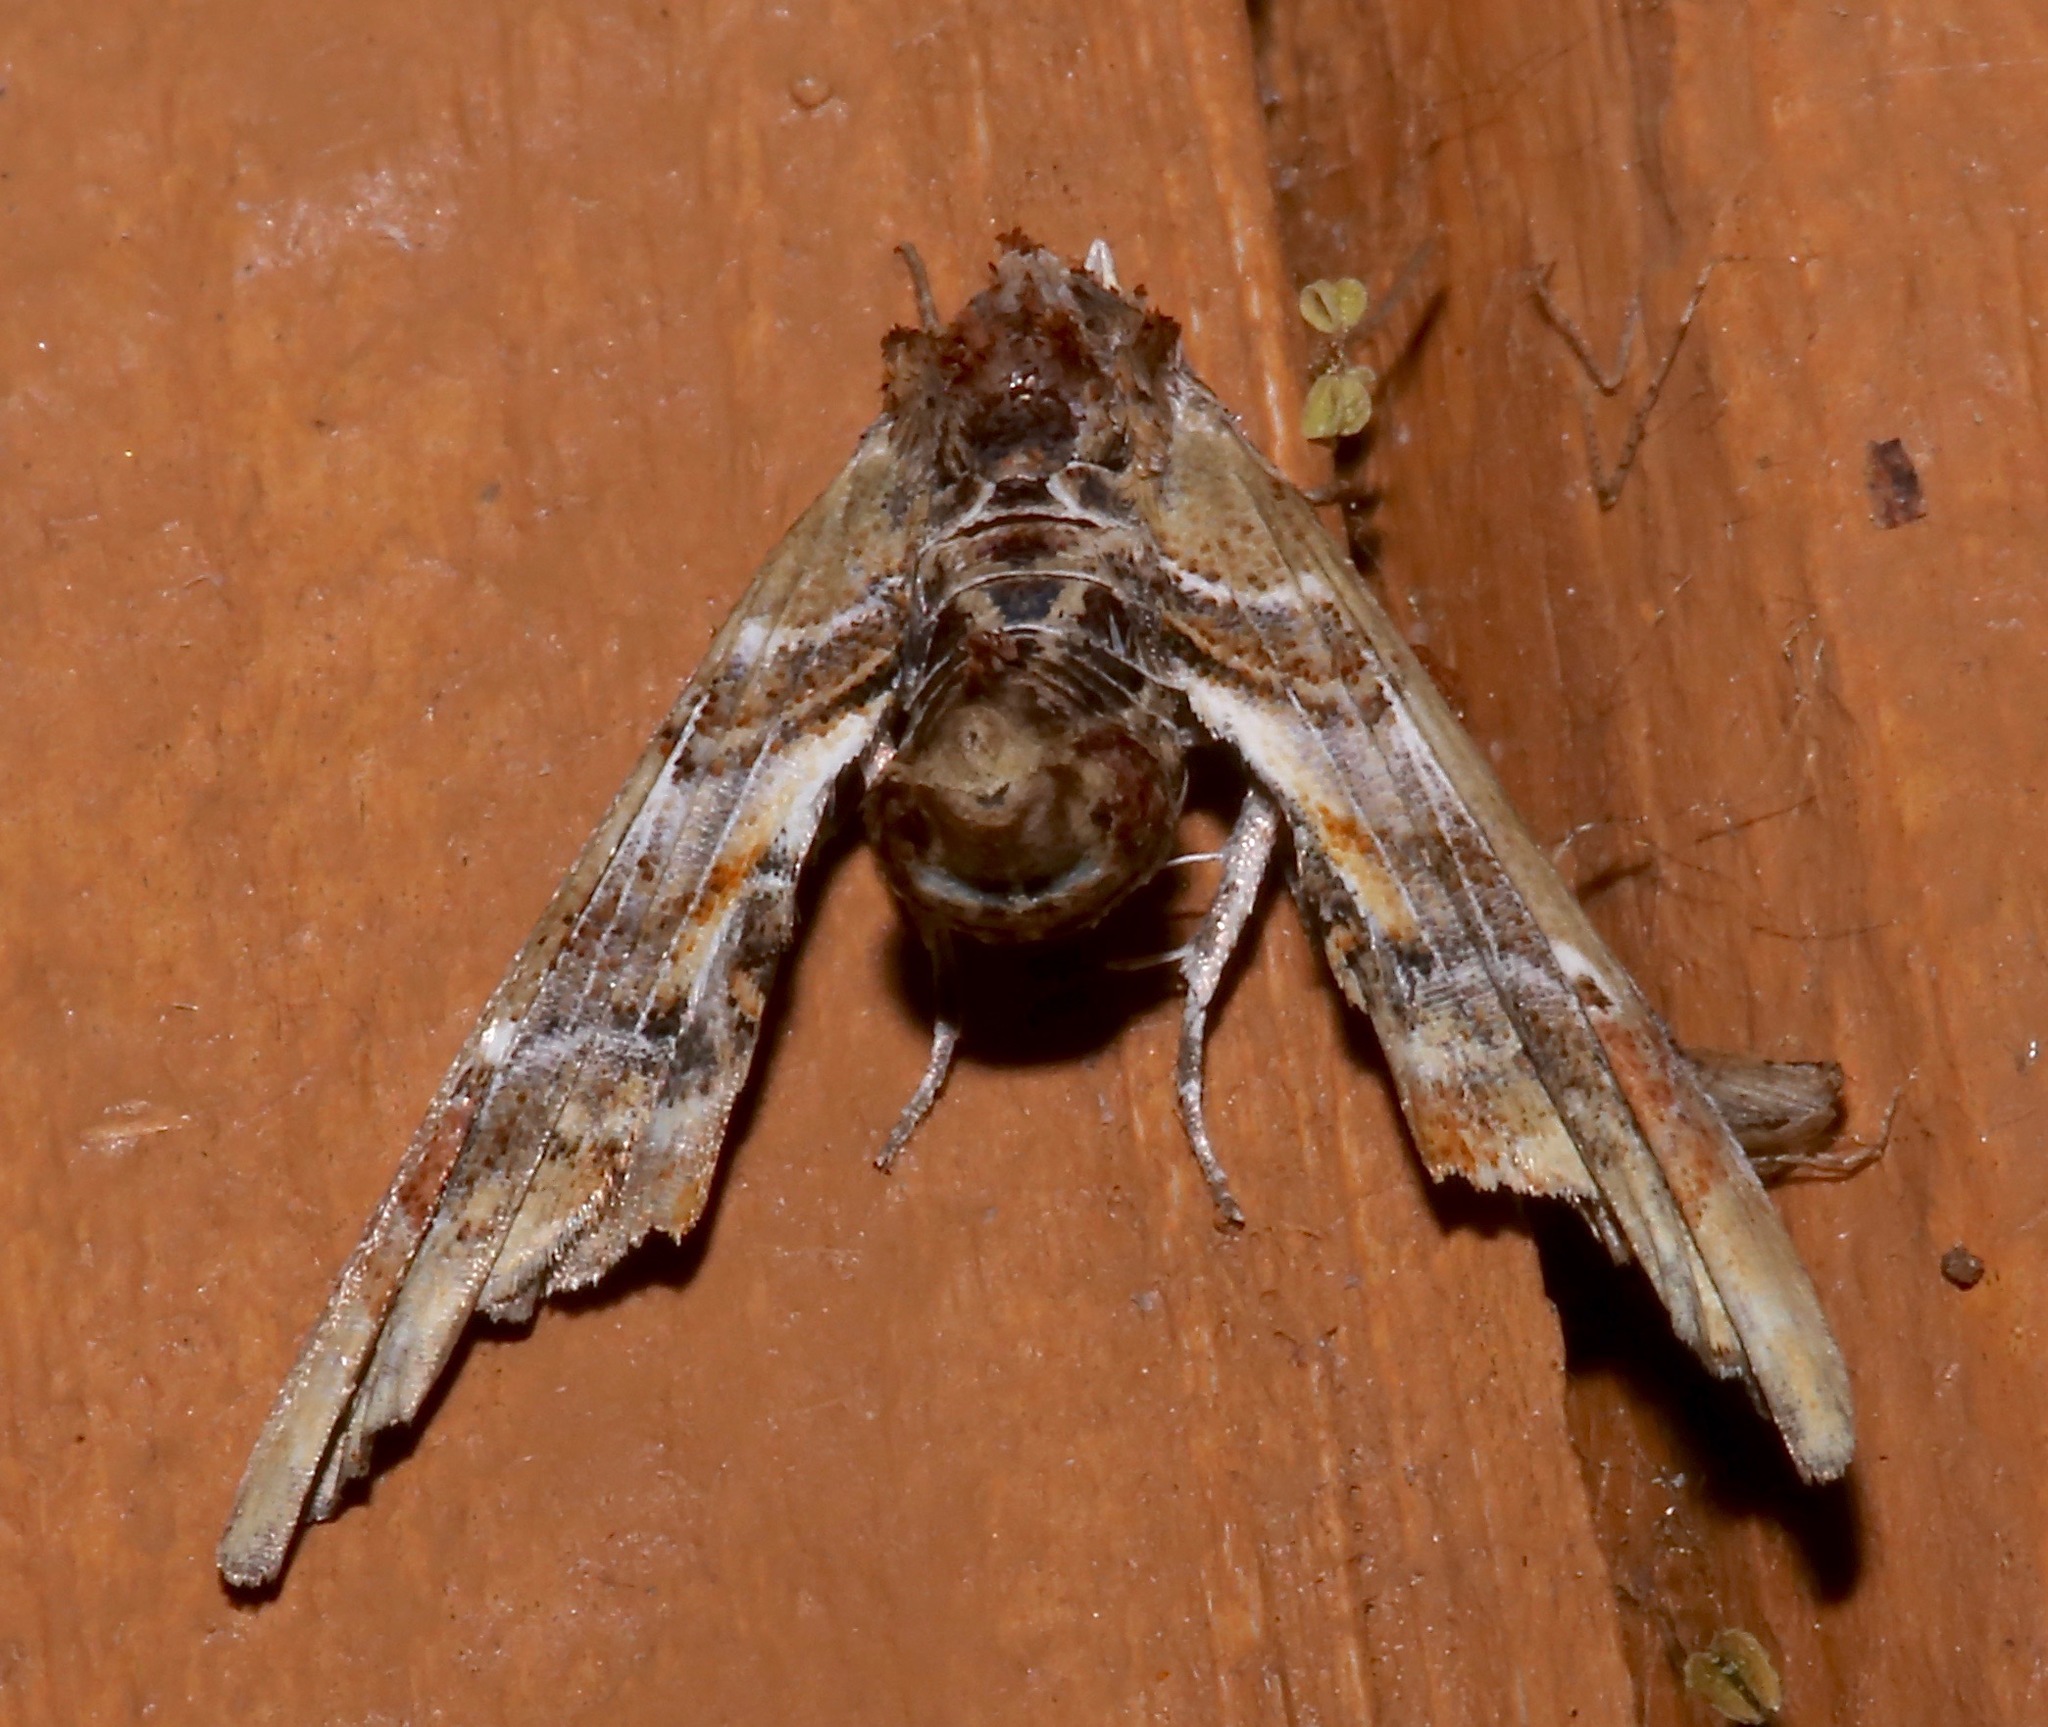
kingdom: Animalia
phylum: Arthropoda
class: Insecta
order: Lepidoptera
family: Euteliidae
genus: Marathyssa
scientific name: Marathyssa basalis
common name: Light marathyssa moth
